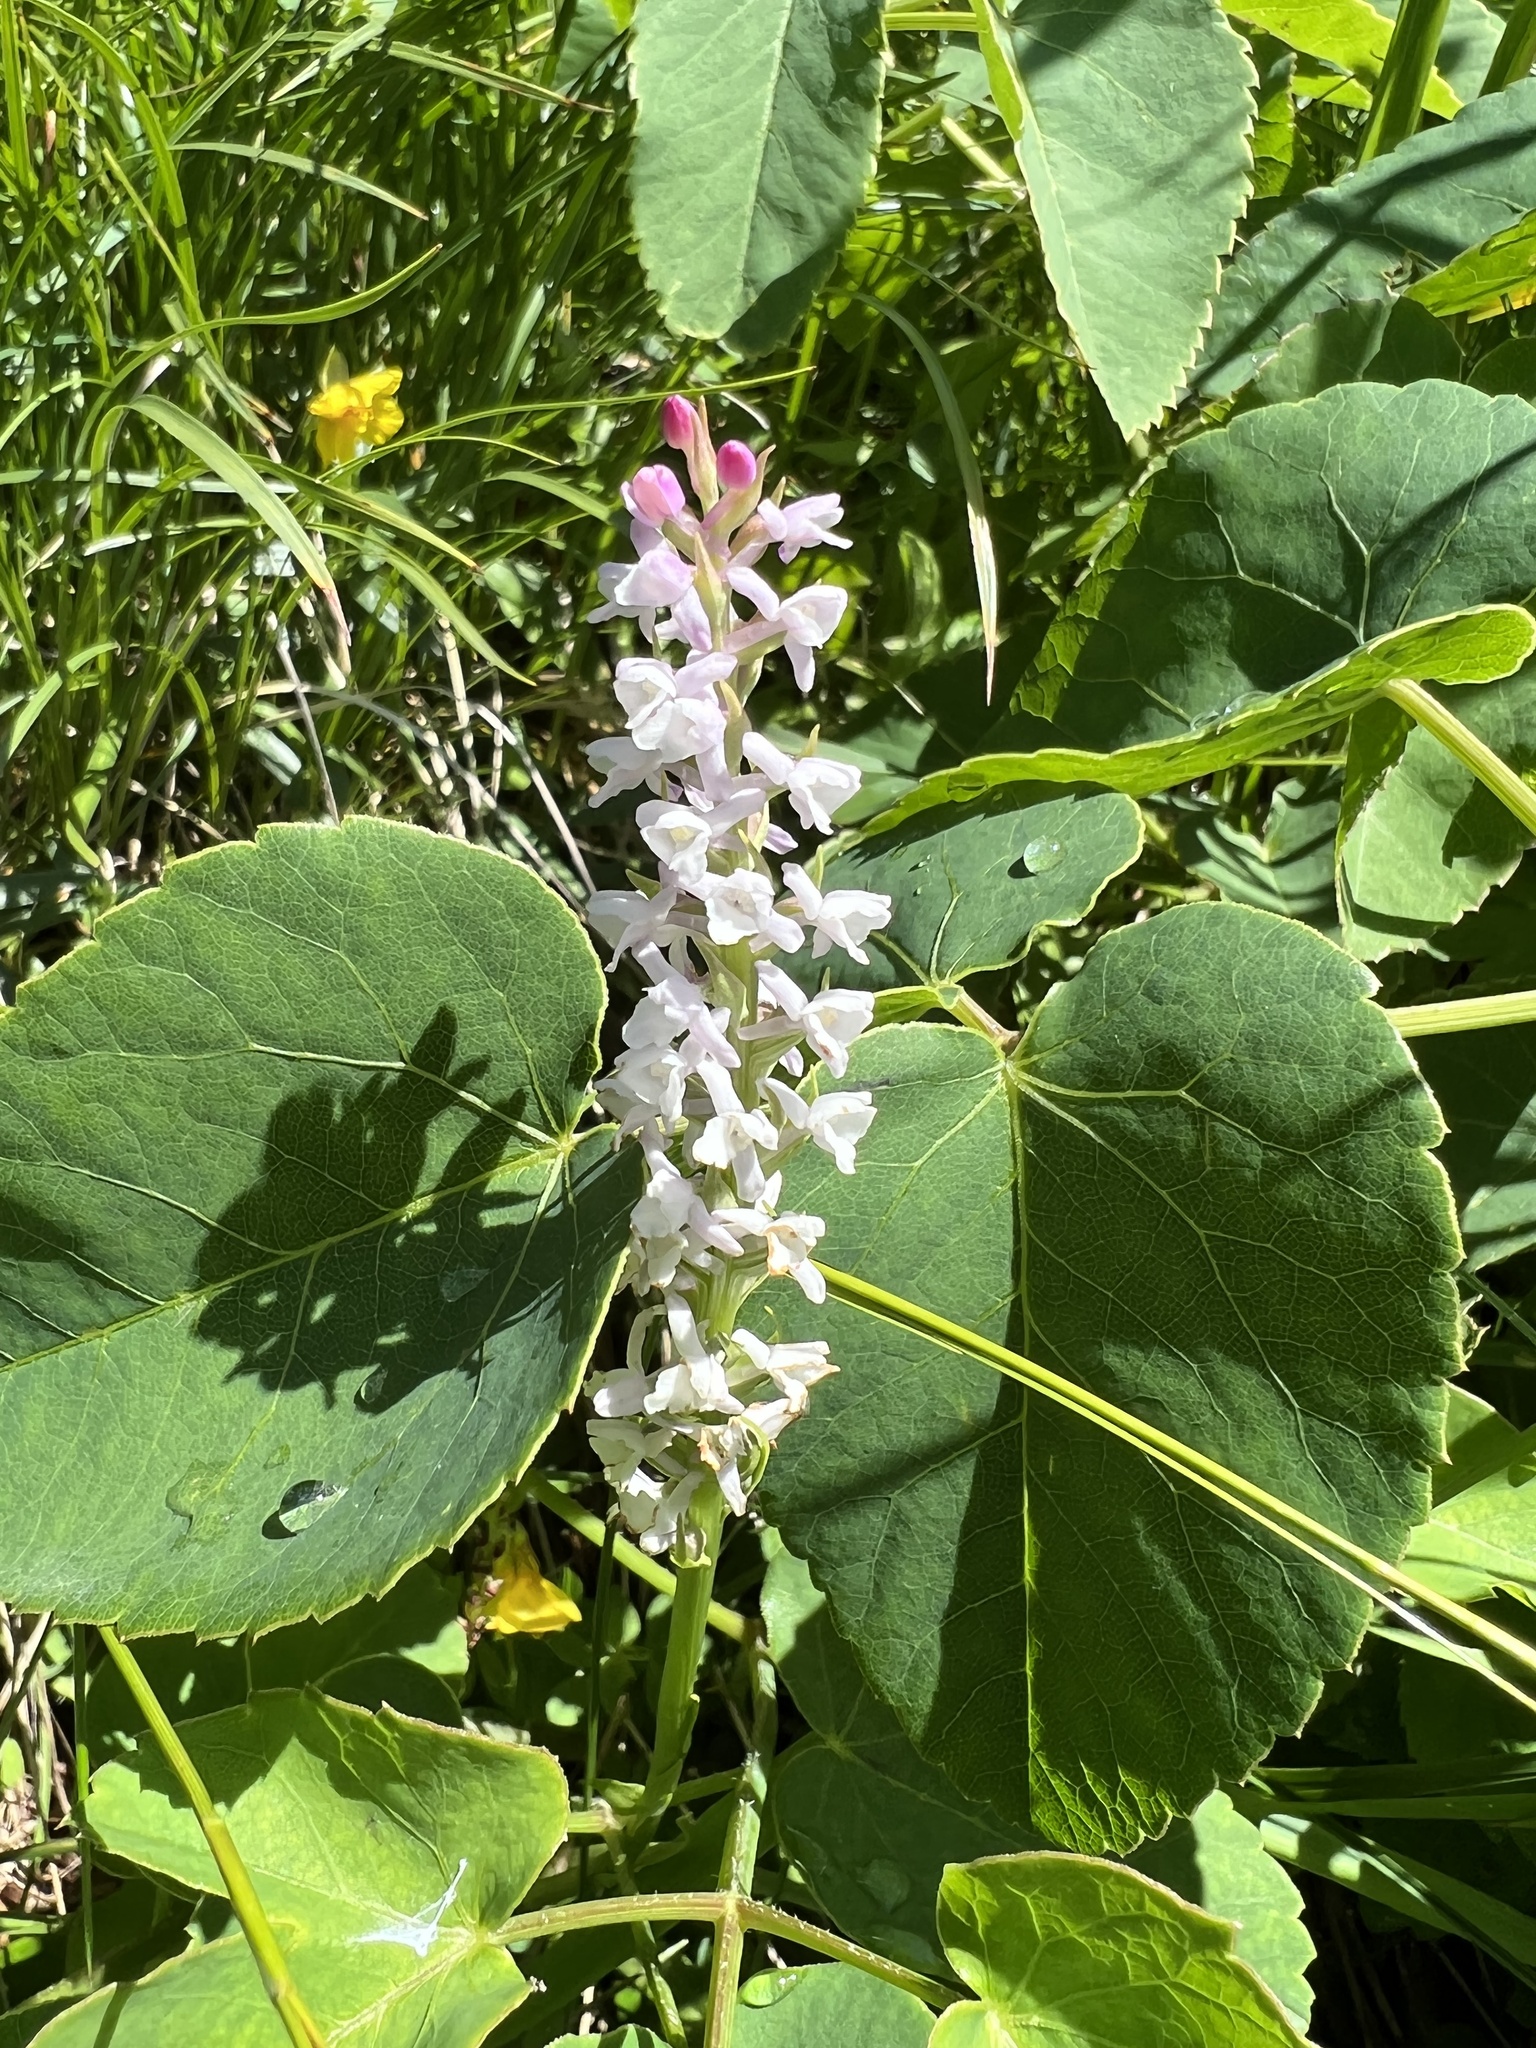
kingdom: Plantae
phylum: Tracheophyta
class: Liliopsida
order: Asparagales
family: Orchidaceae
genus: Gymnadenia
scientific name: Gymnadenia odoratissima
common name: Scented gymnadenia
